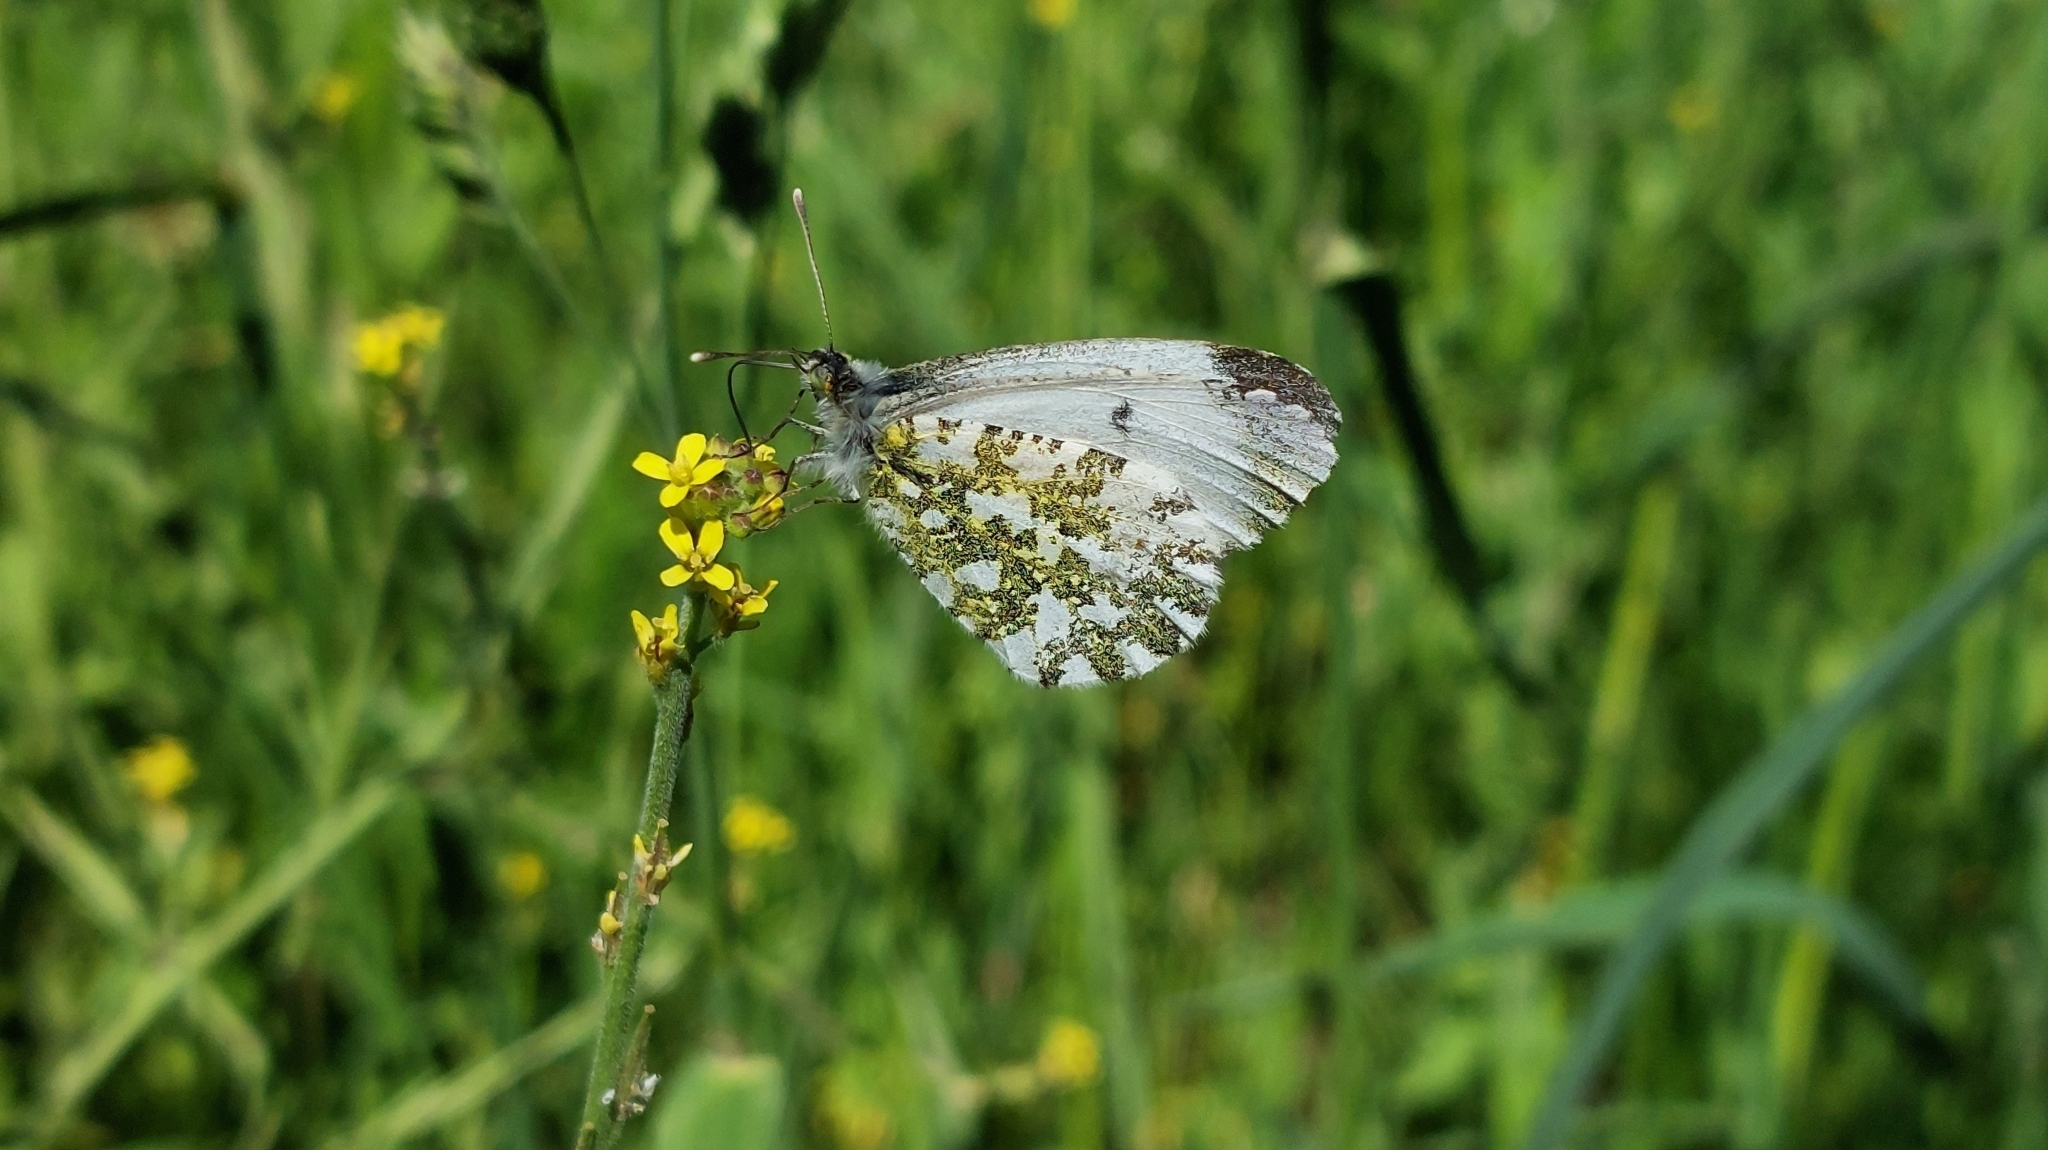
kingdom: Animalia
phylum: Arthropoda
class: Insecta
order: Lepidoptera
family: Pieridae
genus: Anthocharis
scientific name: Anthocharis cardamines
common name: Orange-tip
